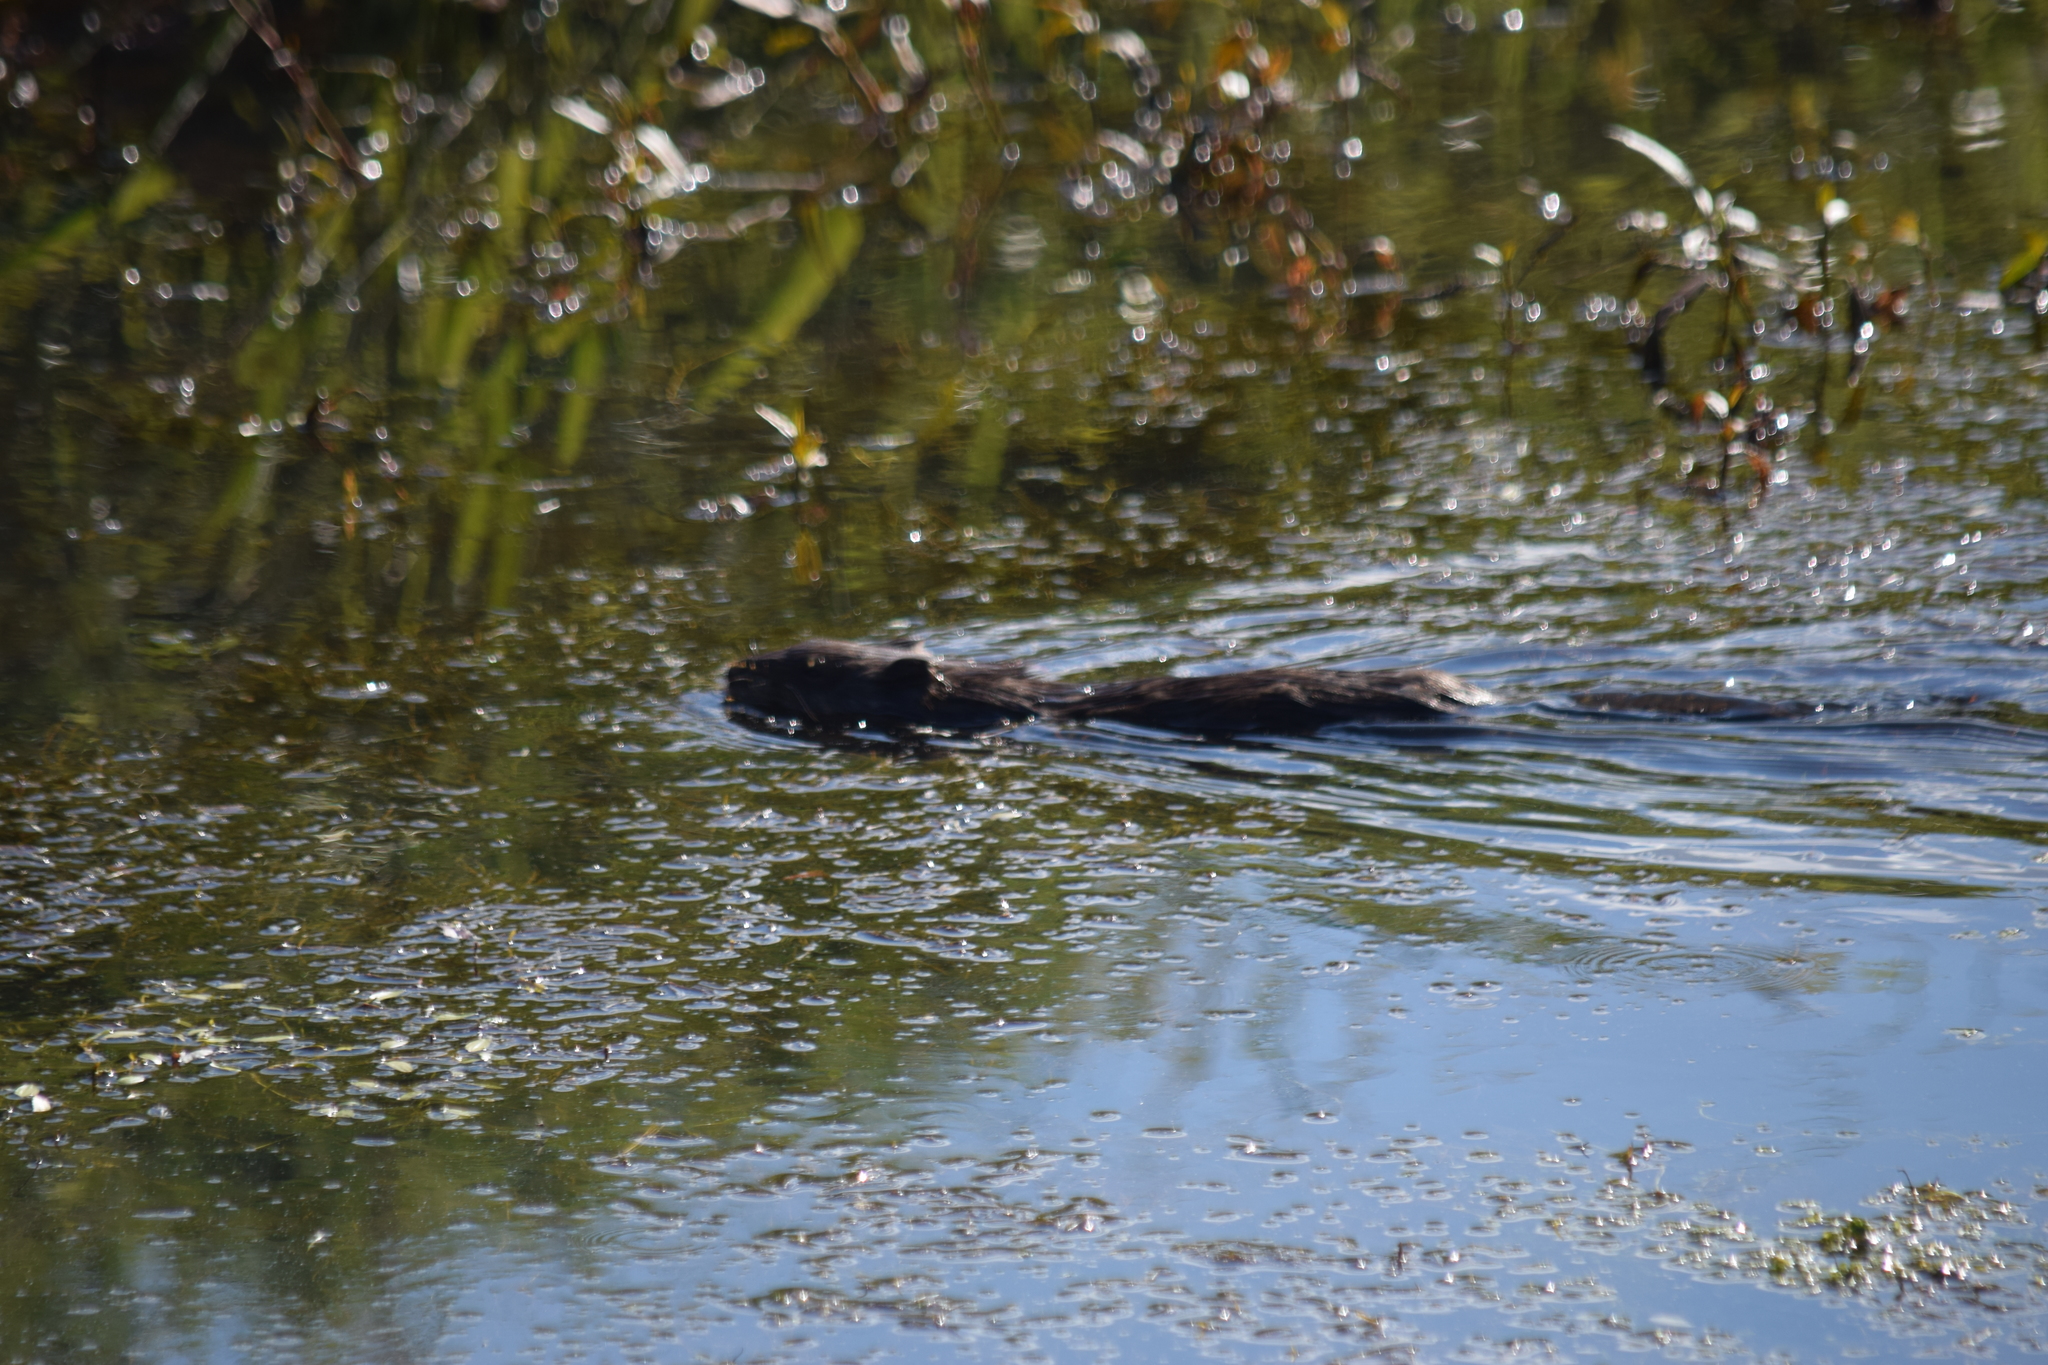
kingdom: Animalia
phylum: Chordata
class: Mammalia
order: Rodentia
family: Cricetidae
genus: Ondatra
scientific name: Ondatra zibethicus
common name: Muskrat
